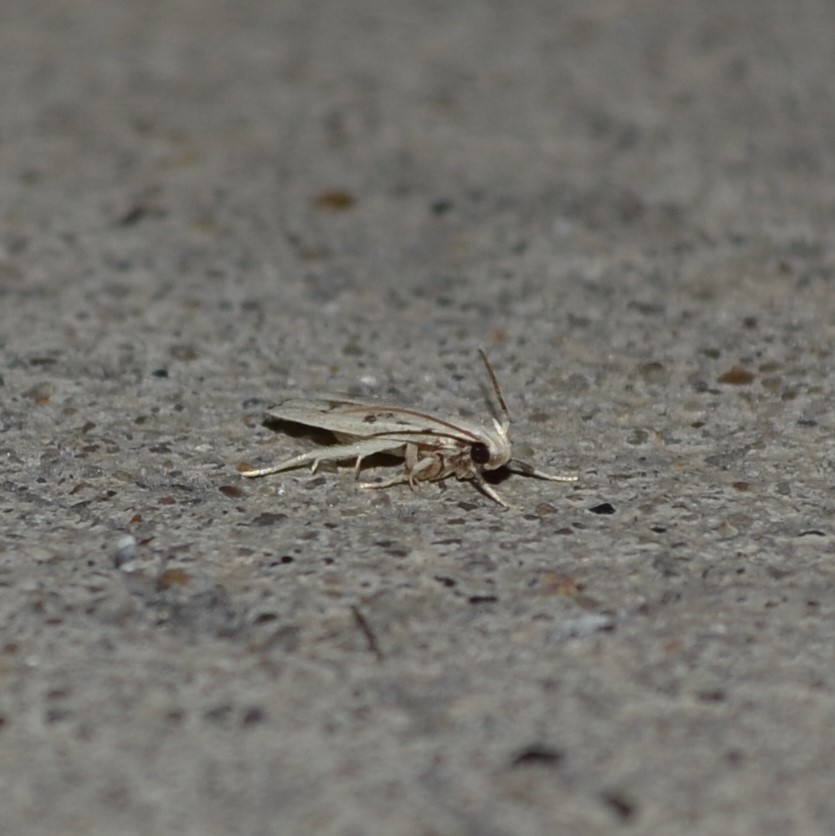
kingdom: Animalia
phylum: Arthropoda
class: Insecta
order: Lepidoptera
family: Autostichidae
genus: Glyphidocera
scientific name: Glyphidocera lactiflosella
